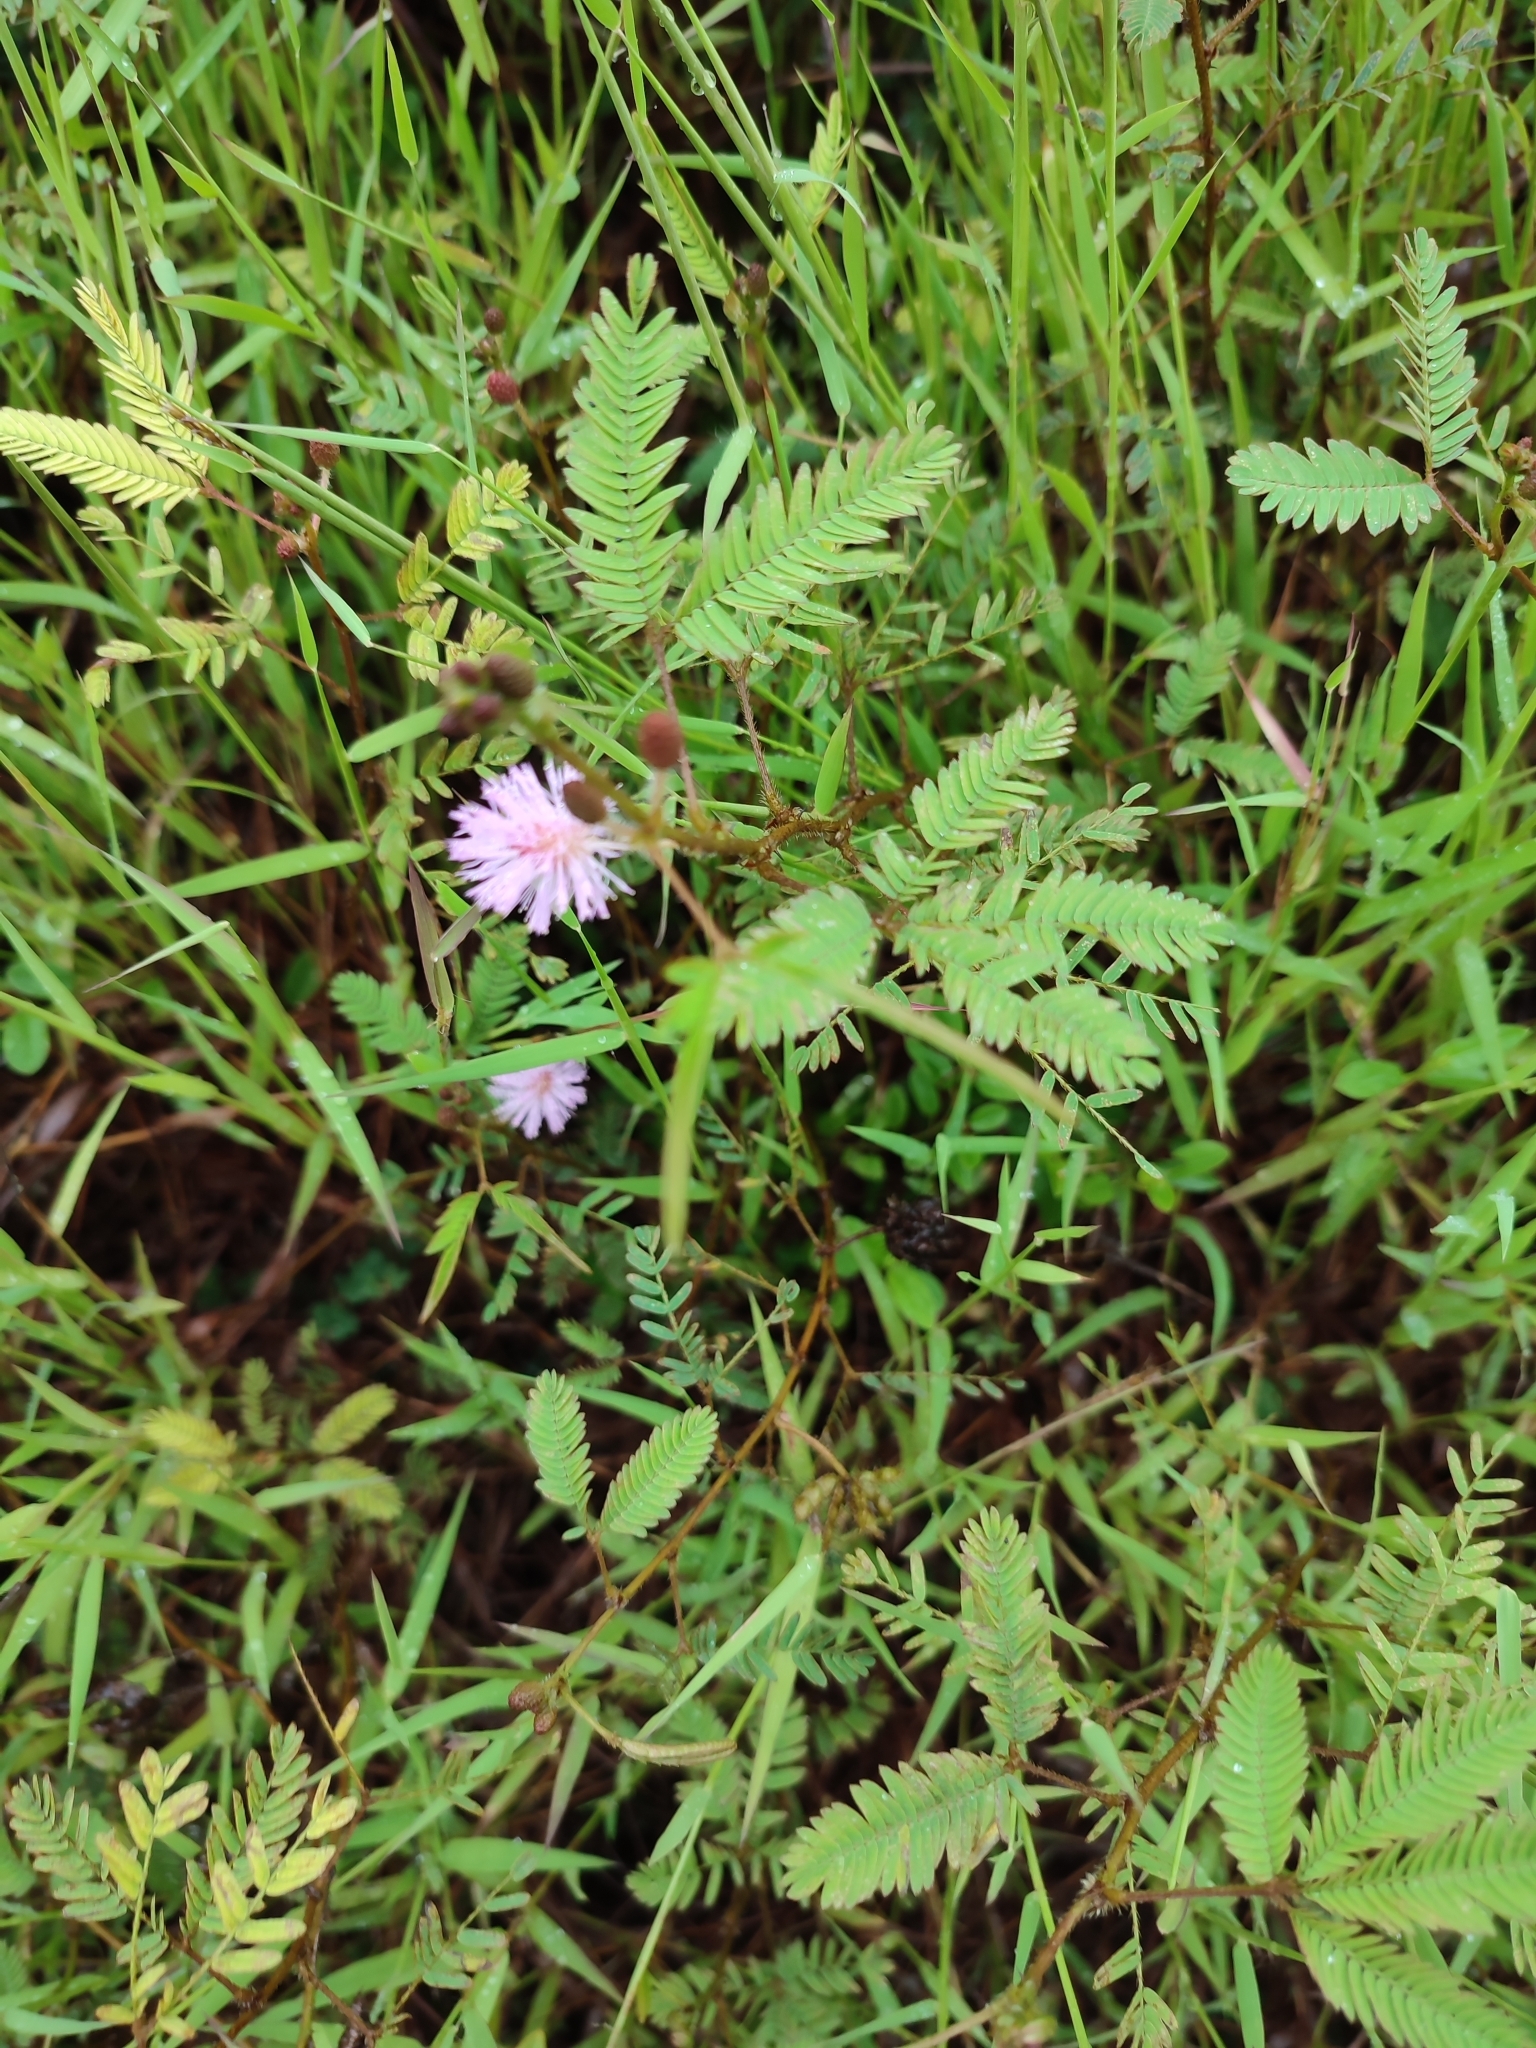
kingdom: Plantae
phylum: Tracheophyta
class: Magnoliopsida
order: Fabales
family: Fabaceae
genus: Mimosa
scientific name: Mimosa pudica
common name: Sensitive plant
